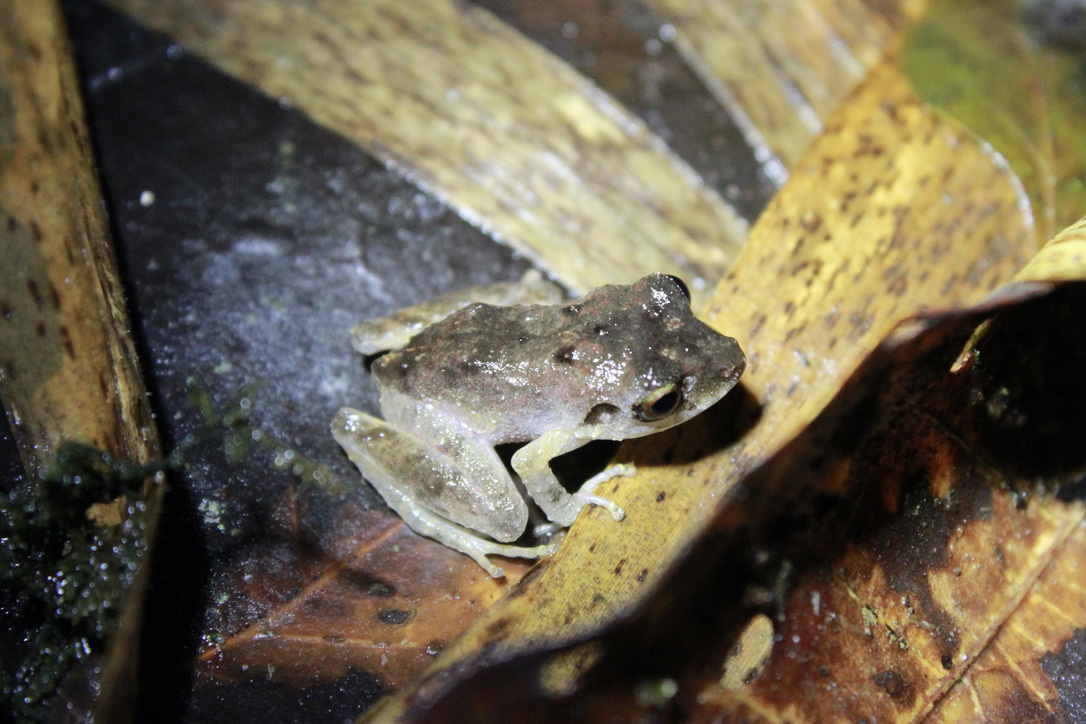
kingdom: Animalia
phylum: Chordata
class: Amphibia
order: Anura
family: Craugastoridae
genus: Pristimantis
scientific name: Pristimantis urichi
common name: Lesser antilles robber frog
